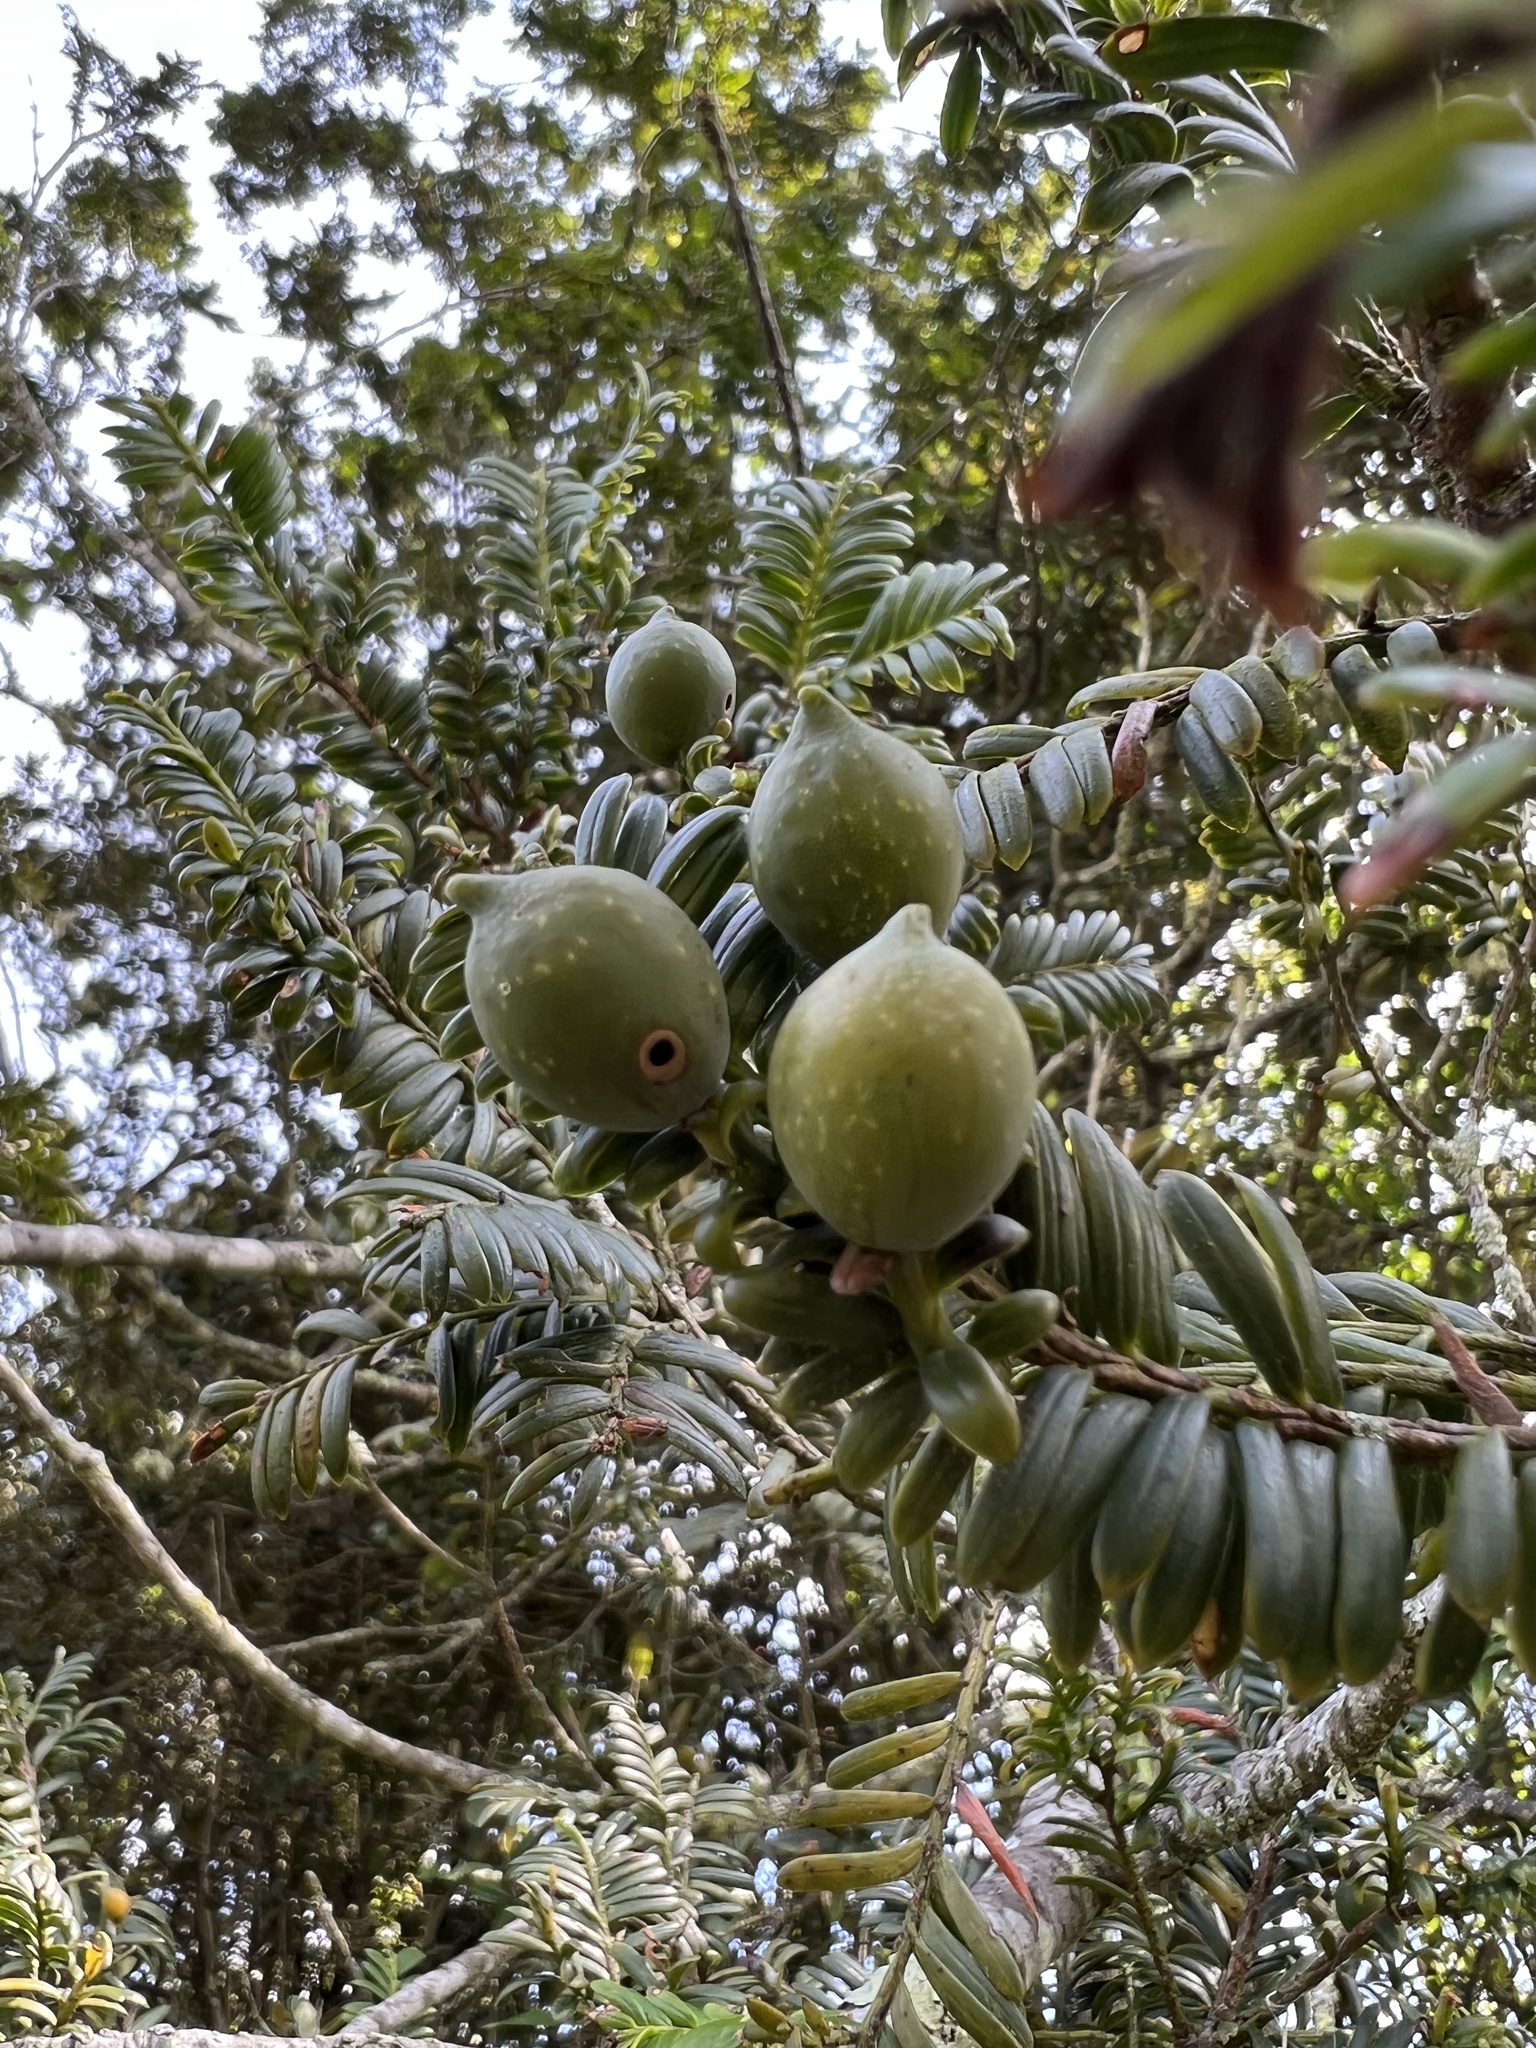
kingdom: Plantae
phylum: Tracheophyta
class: Pinopsida
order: Pinales
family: Podocarpaceae
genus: Prumnopitys
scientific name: Prumnopitys montana
